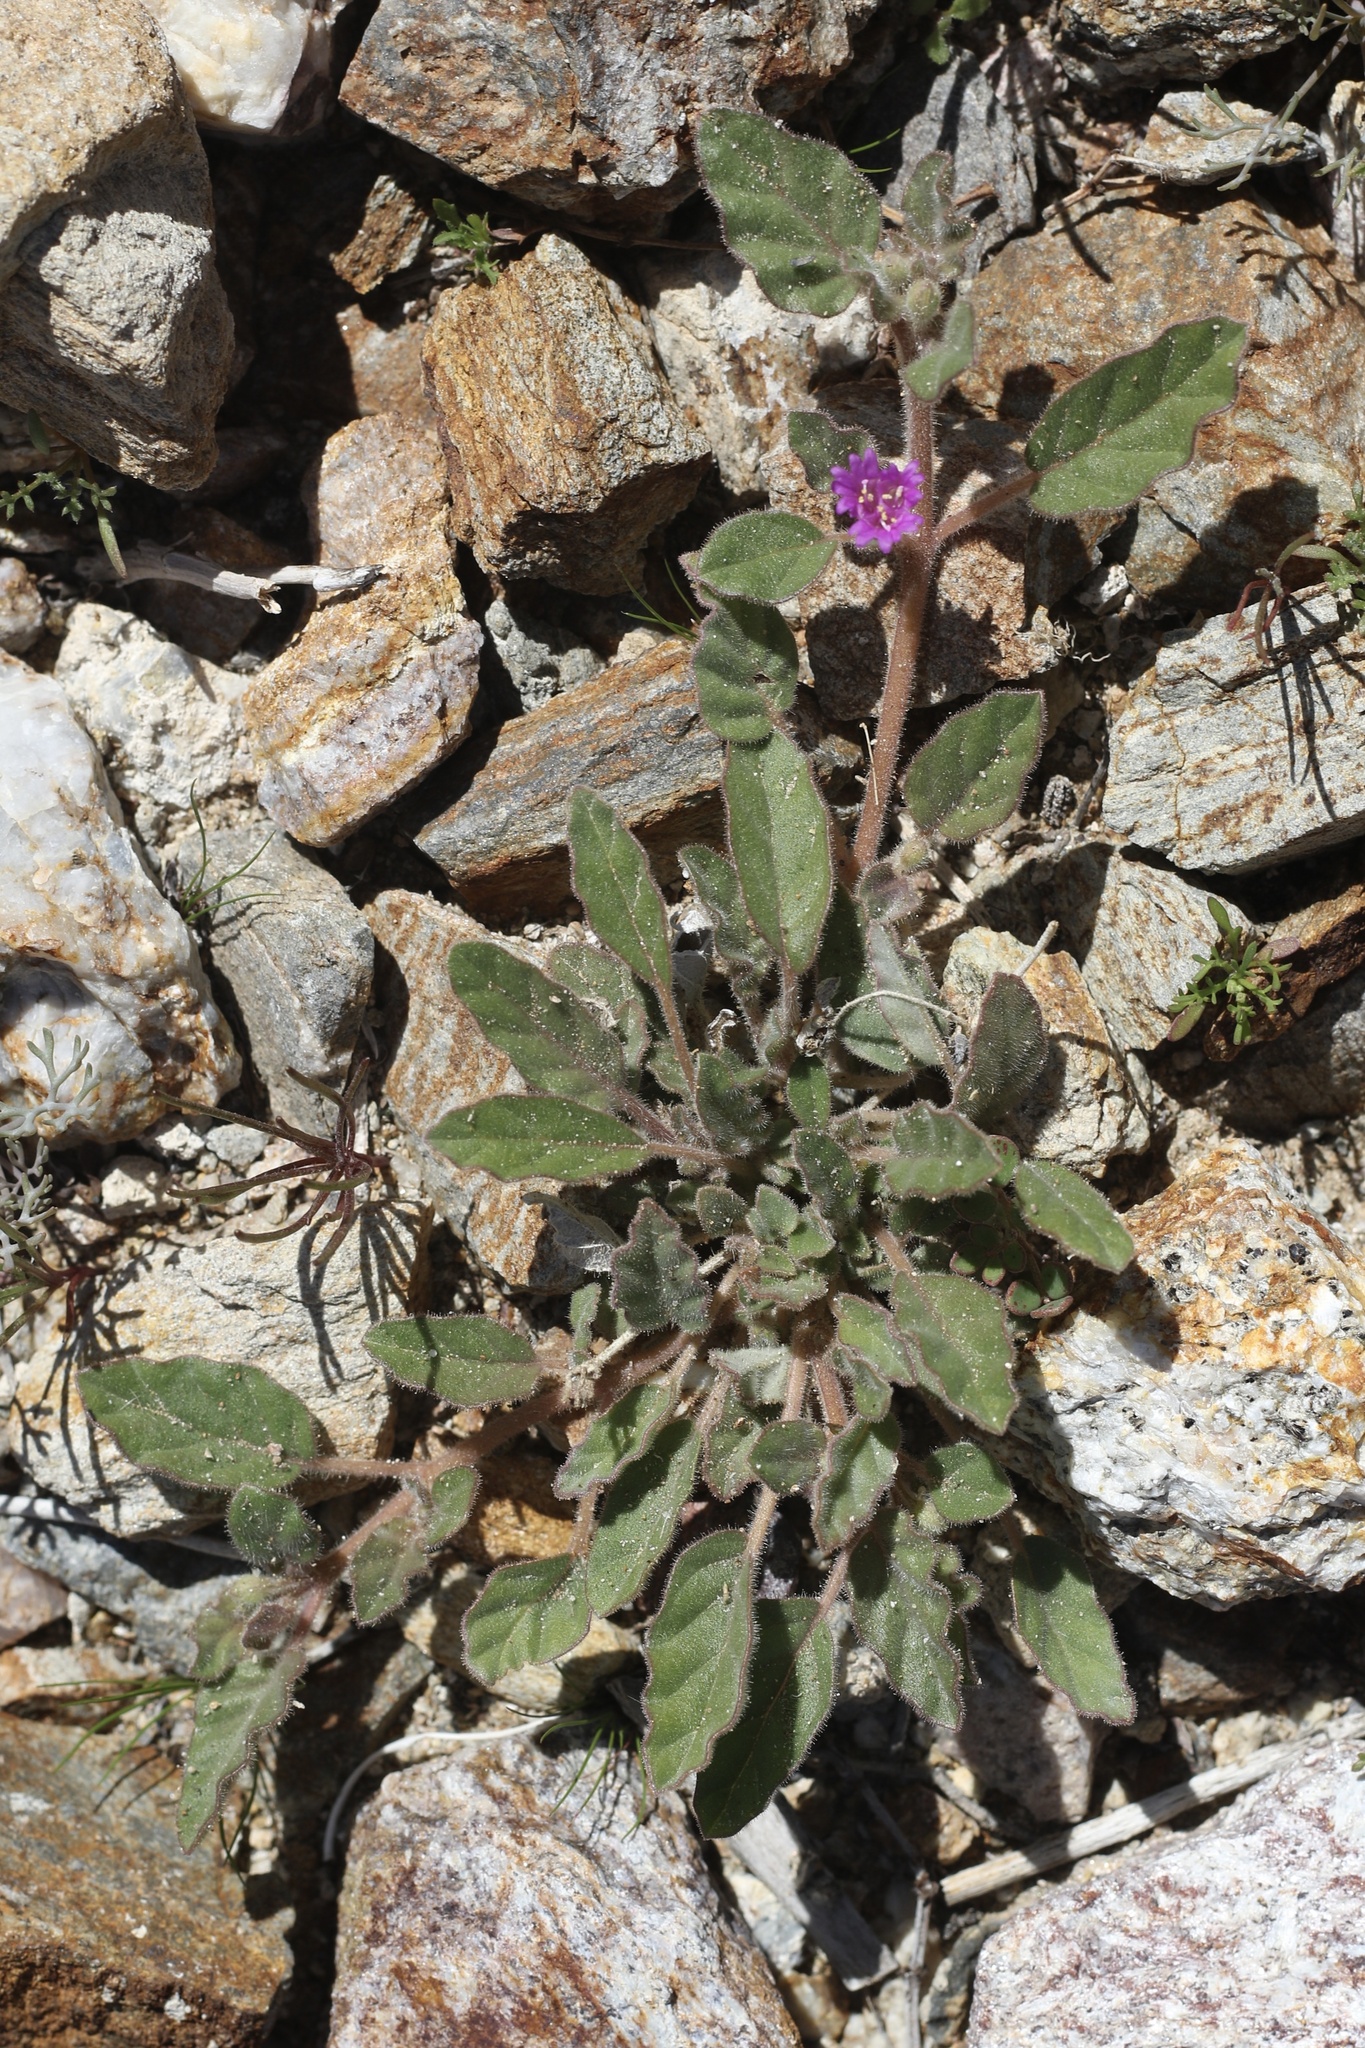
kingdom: Plantae
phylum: Tracheophyta
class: Magnoliopsida
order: Caryophyllales
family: Nyctaginaceae
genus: Allionia
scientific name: Allionia incarnata
